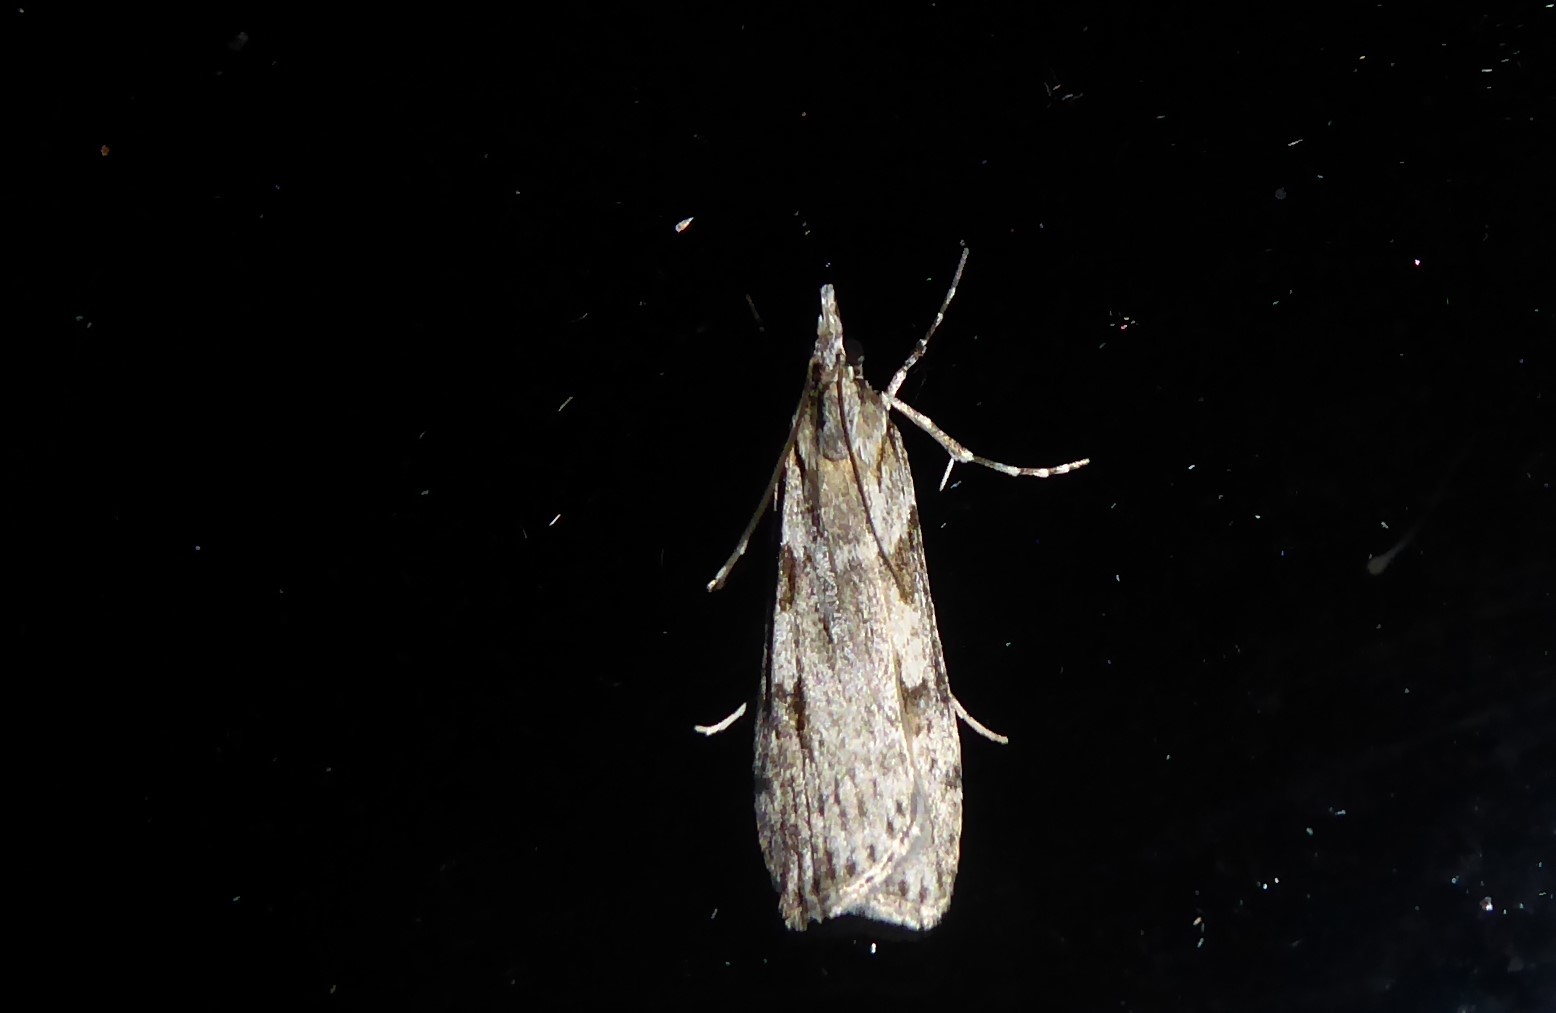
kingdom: Animalia
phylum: Arthropoda
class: Insecta
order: Lepidoptera
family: Crambidae
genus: Scoparia
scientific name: Scoparia halopis
